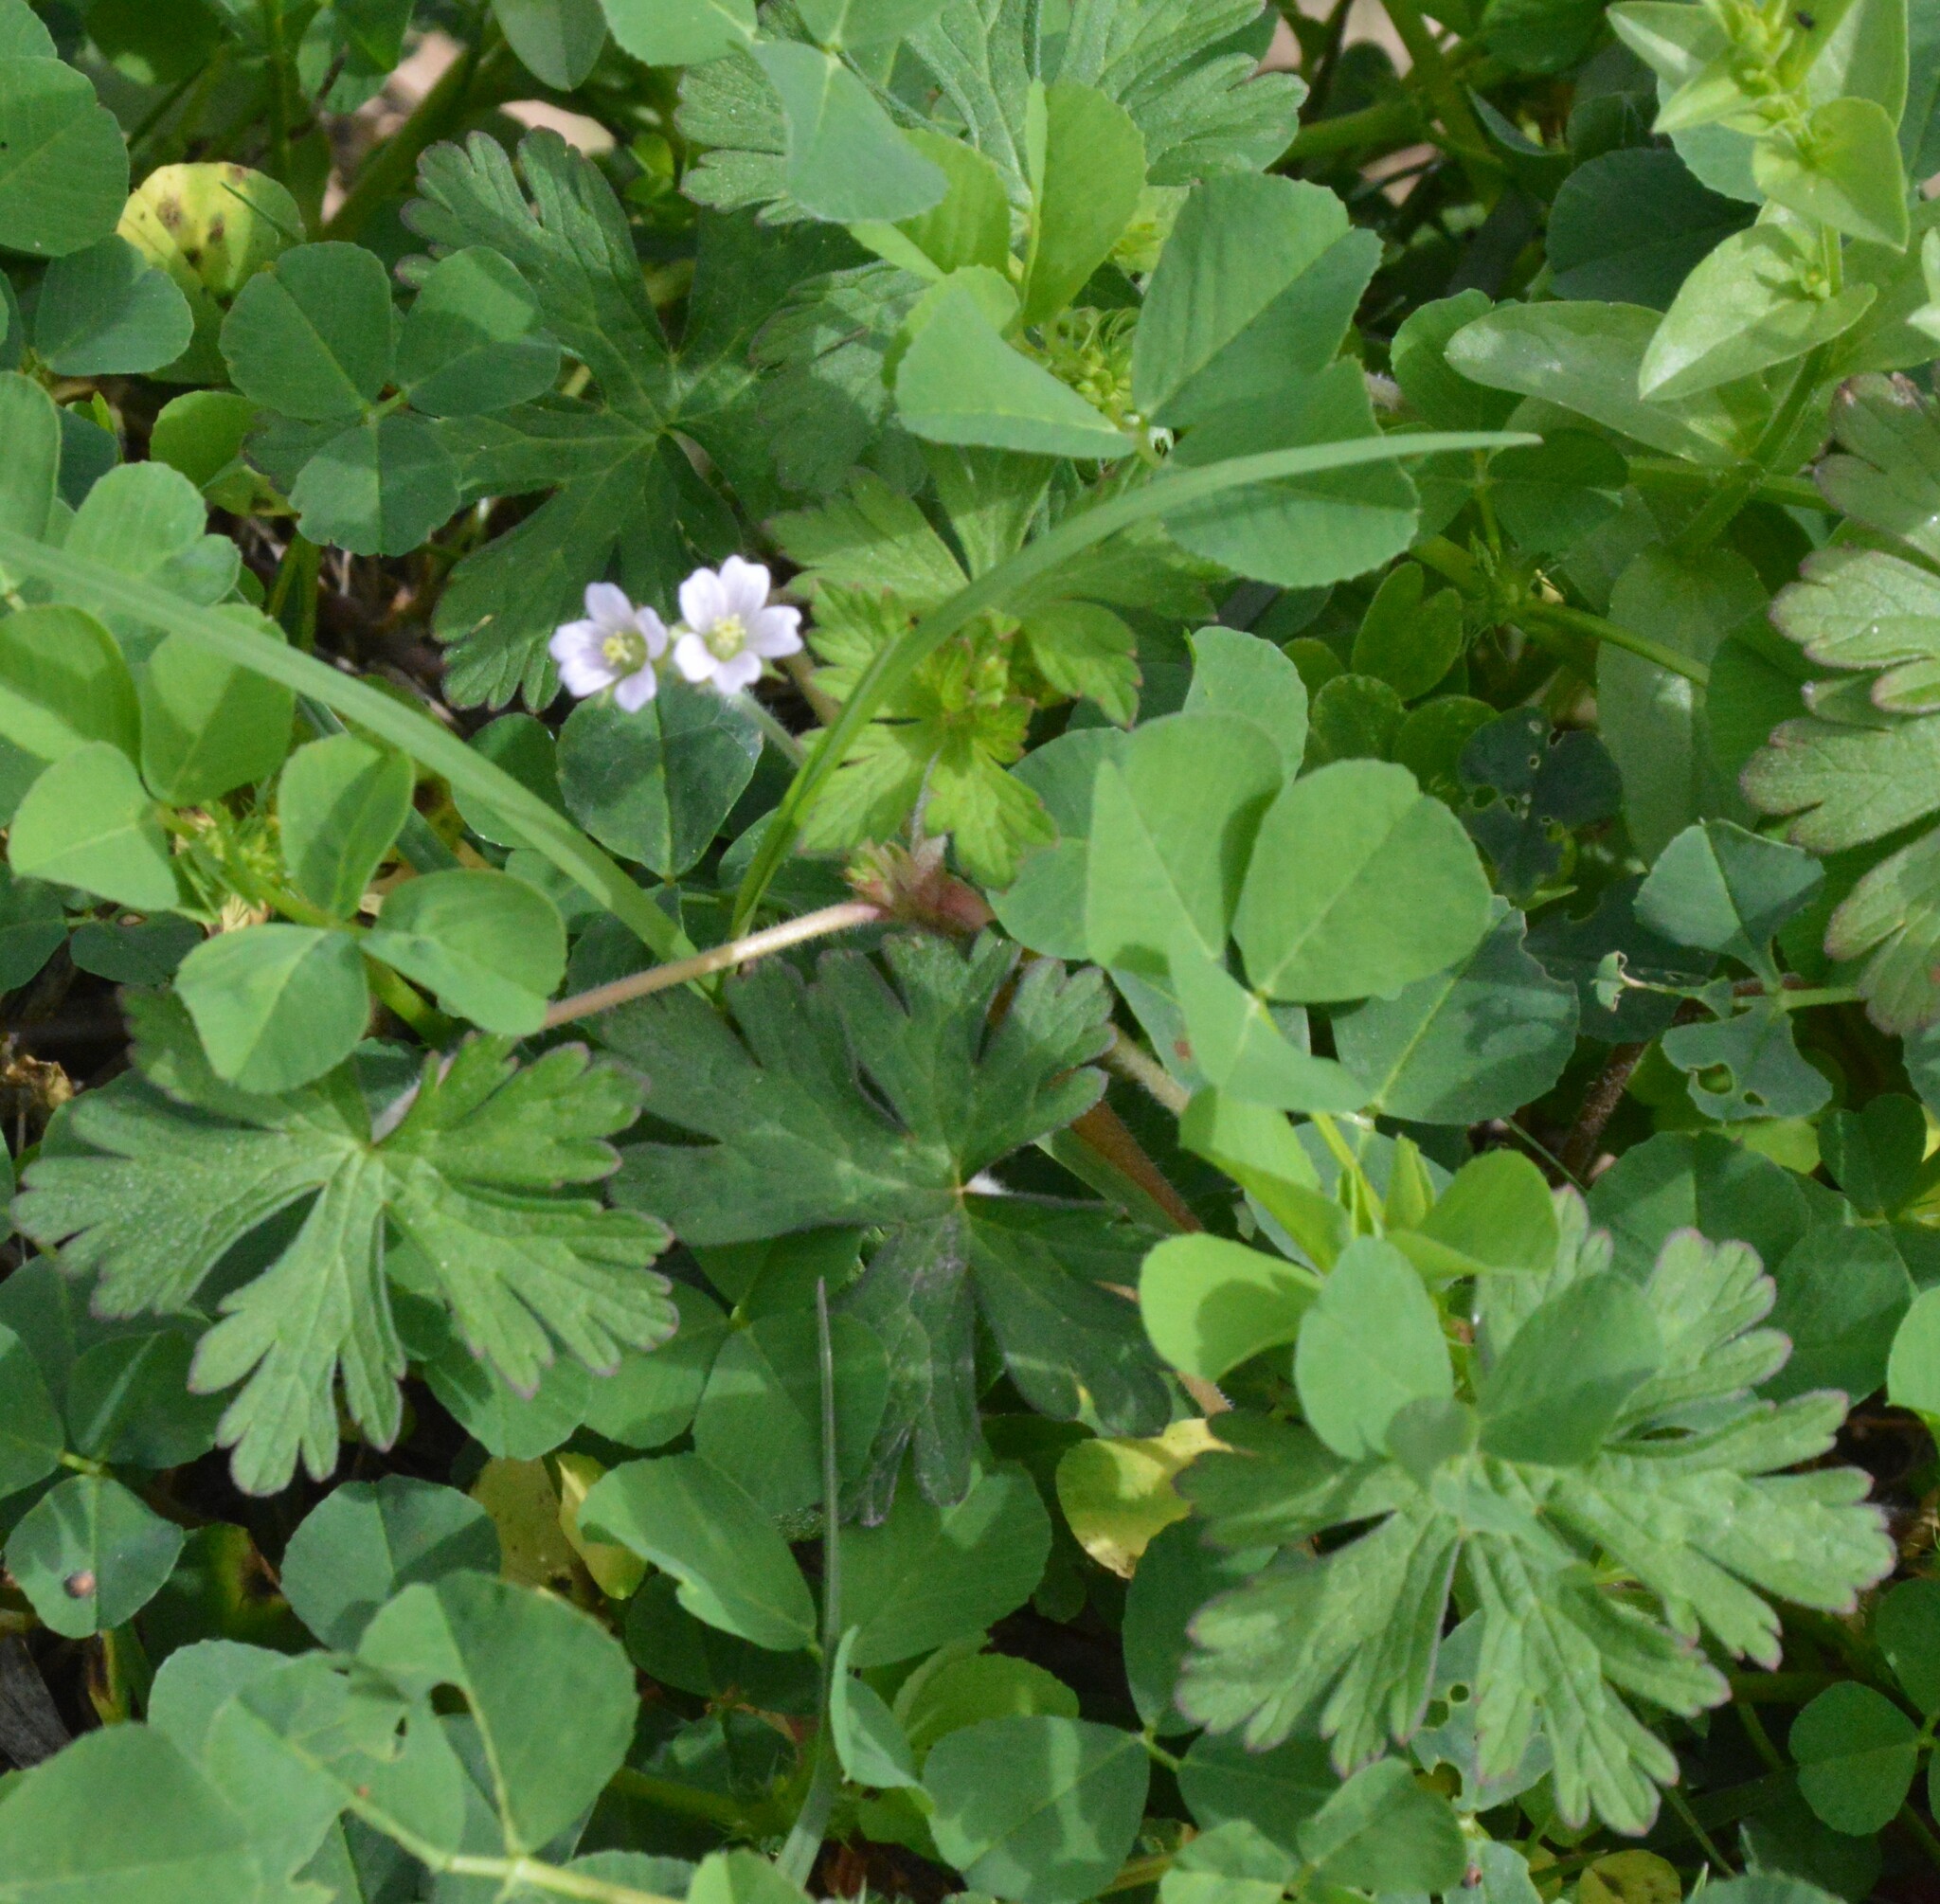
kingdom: Plantae
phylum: Tracheophyta
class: Magnoliopsida
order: Geraniales
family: Geraniaceae
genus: Geranium
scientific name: Geranium carolinianum
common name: Carolina crane's-bill
